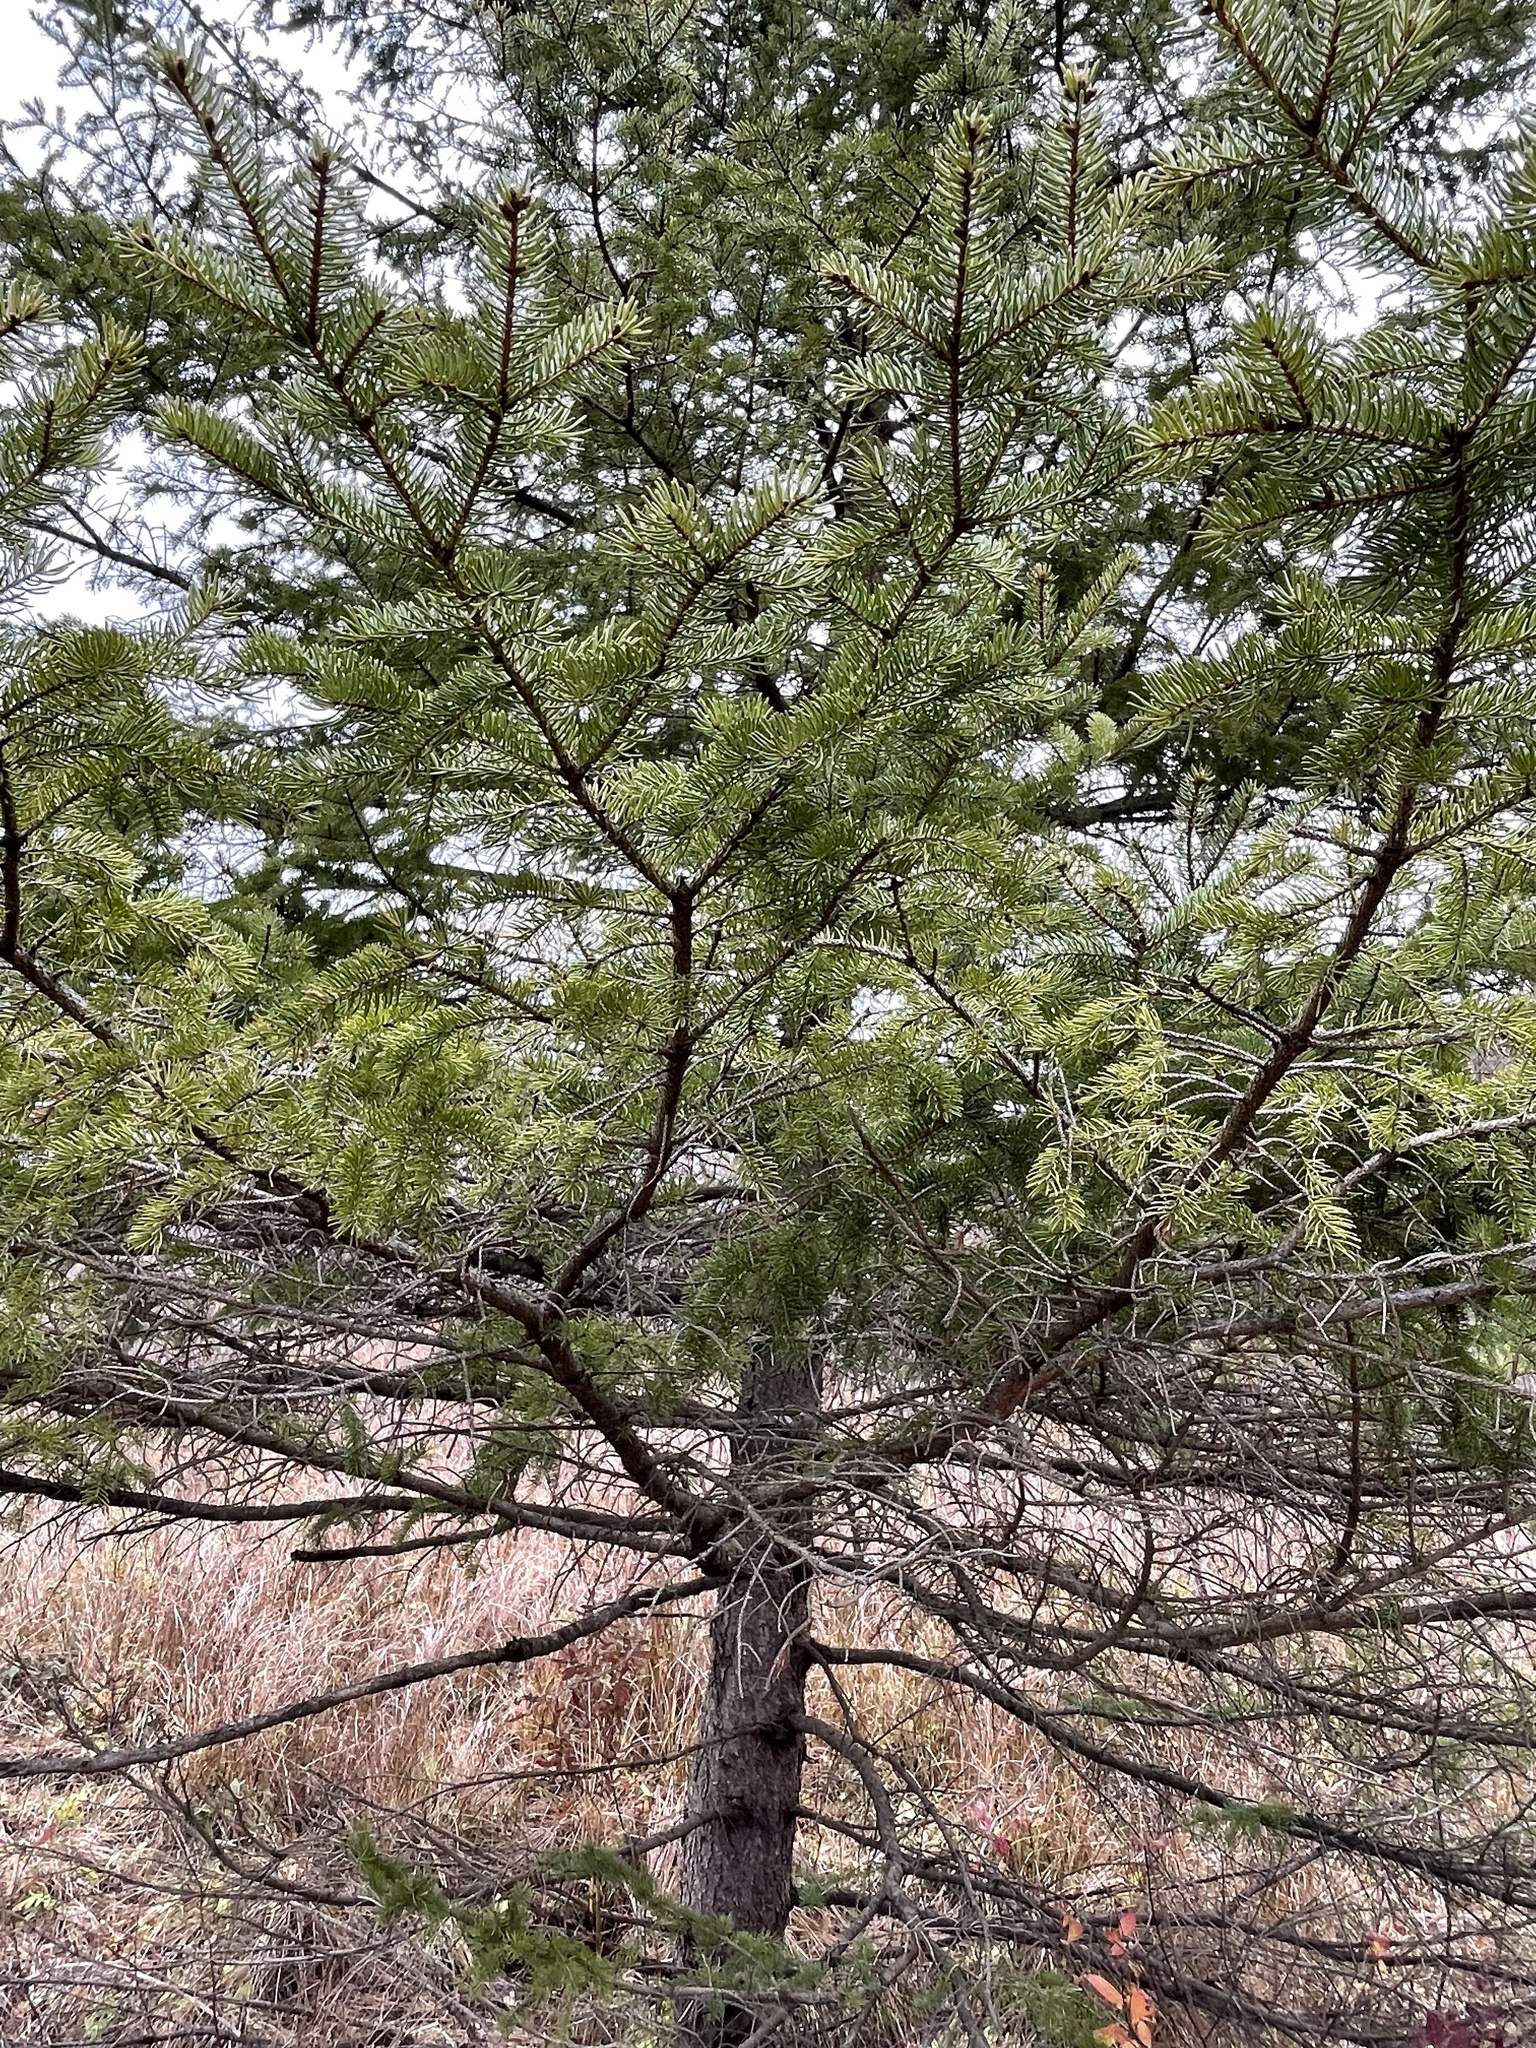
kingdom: Plantae
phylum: Tracheophyta
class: Pinopsida
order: Pinales
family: Pinaceae
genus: Picea
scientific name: Picea glauca
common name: White spruce
